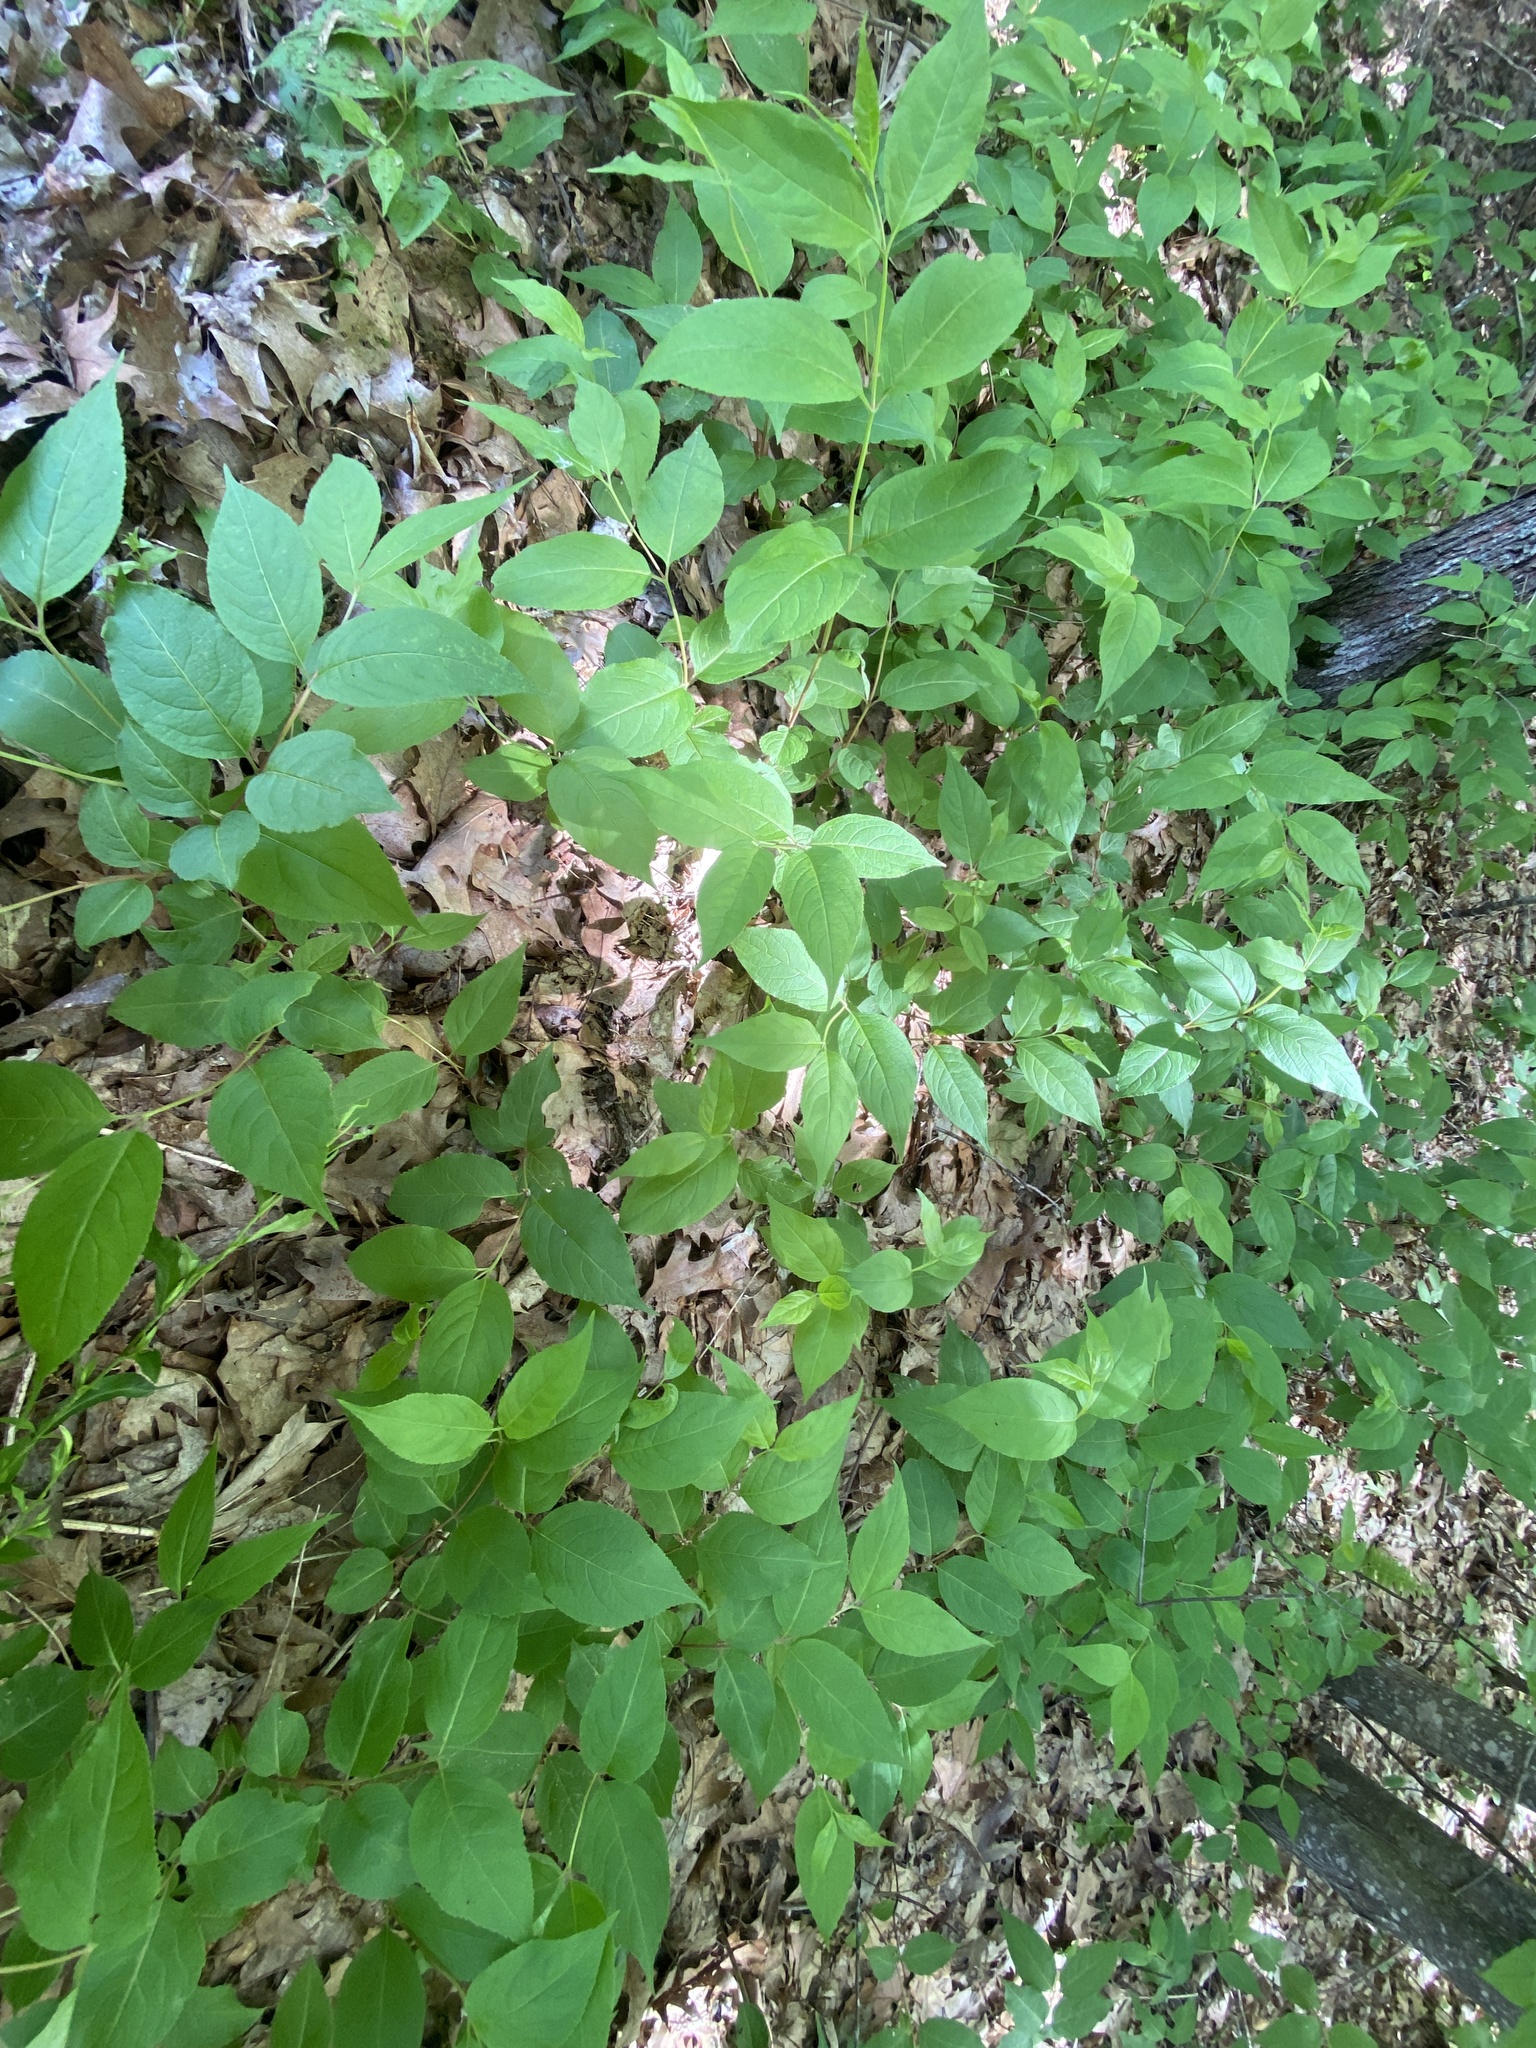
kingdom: Plantae
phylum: Tracheophyta
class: Magnoliopsida
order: Dipsacales
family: Caprifoliaceae
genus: Diervilla
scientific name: Diervilla lonicera
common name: Bush-honeysuckle
